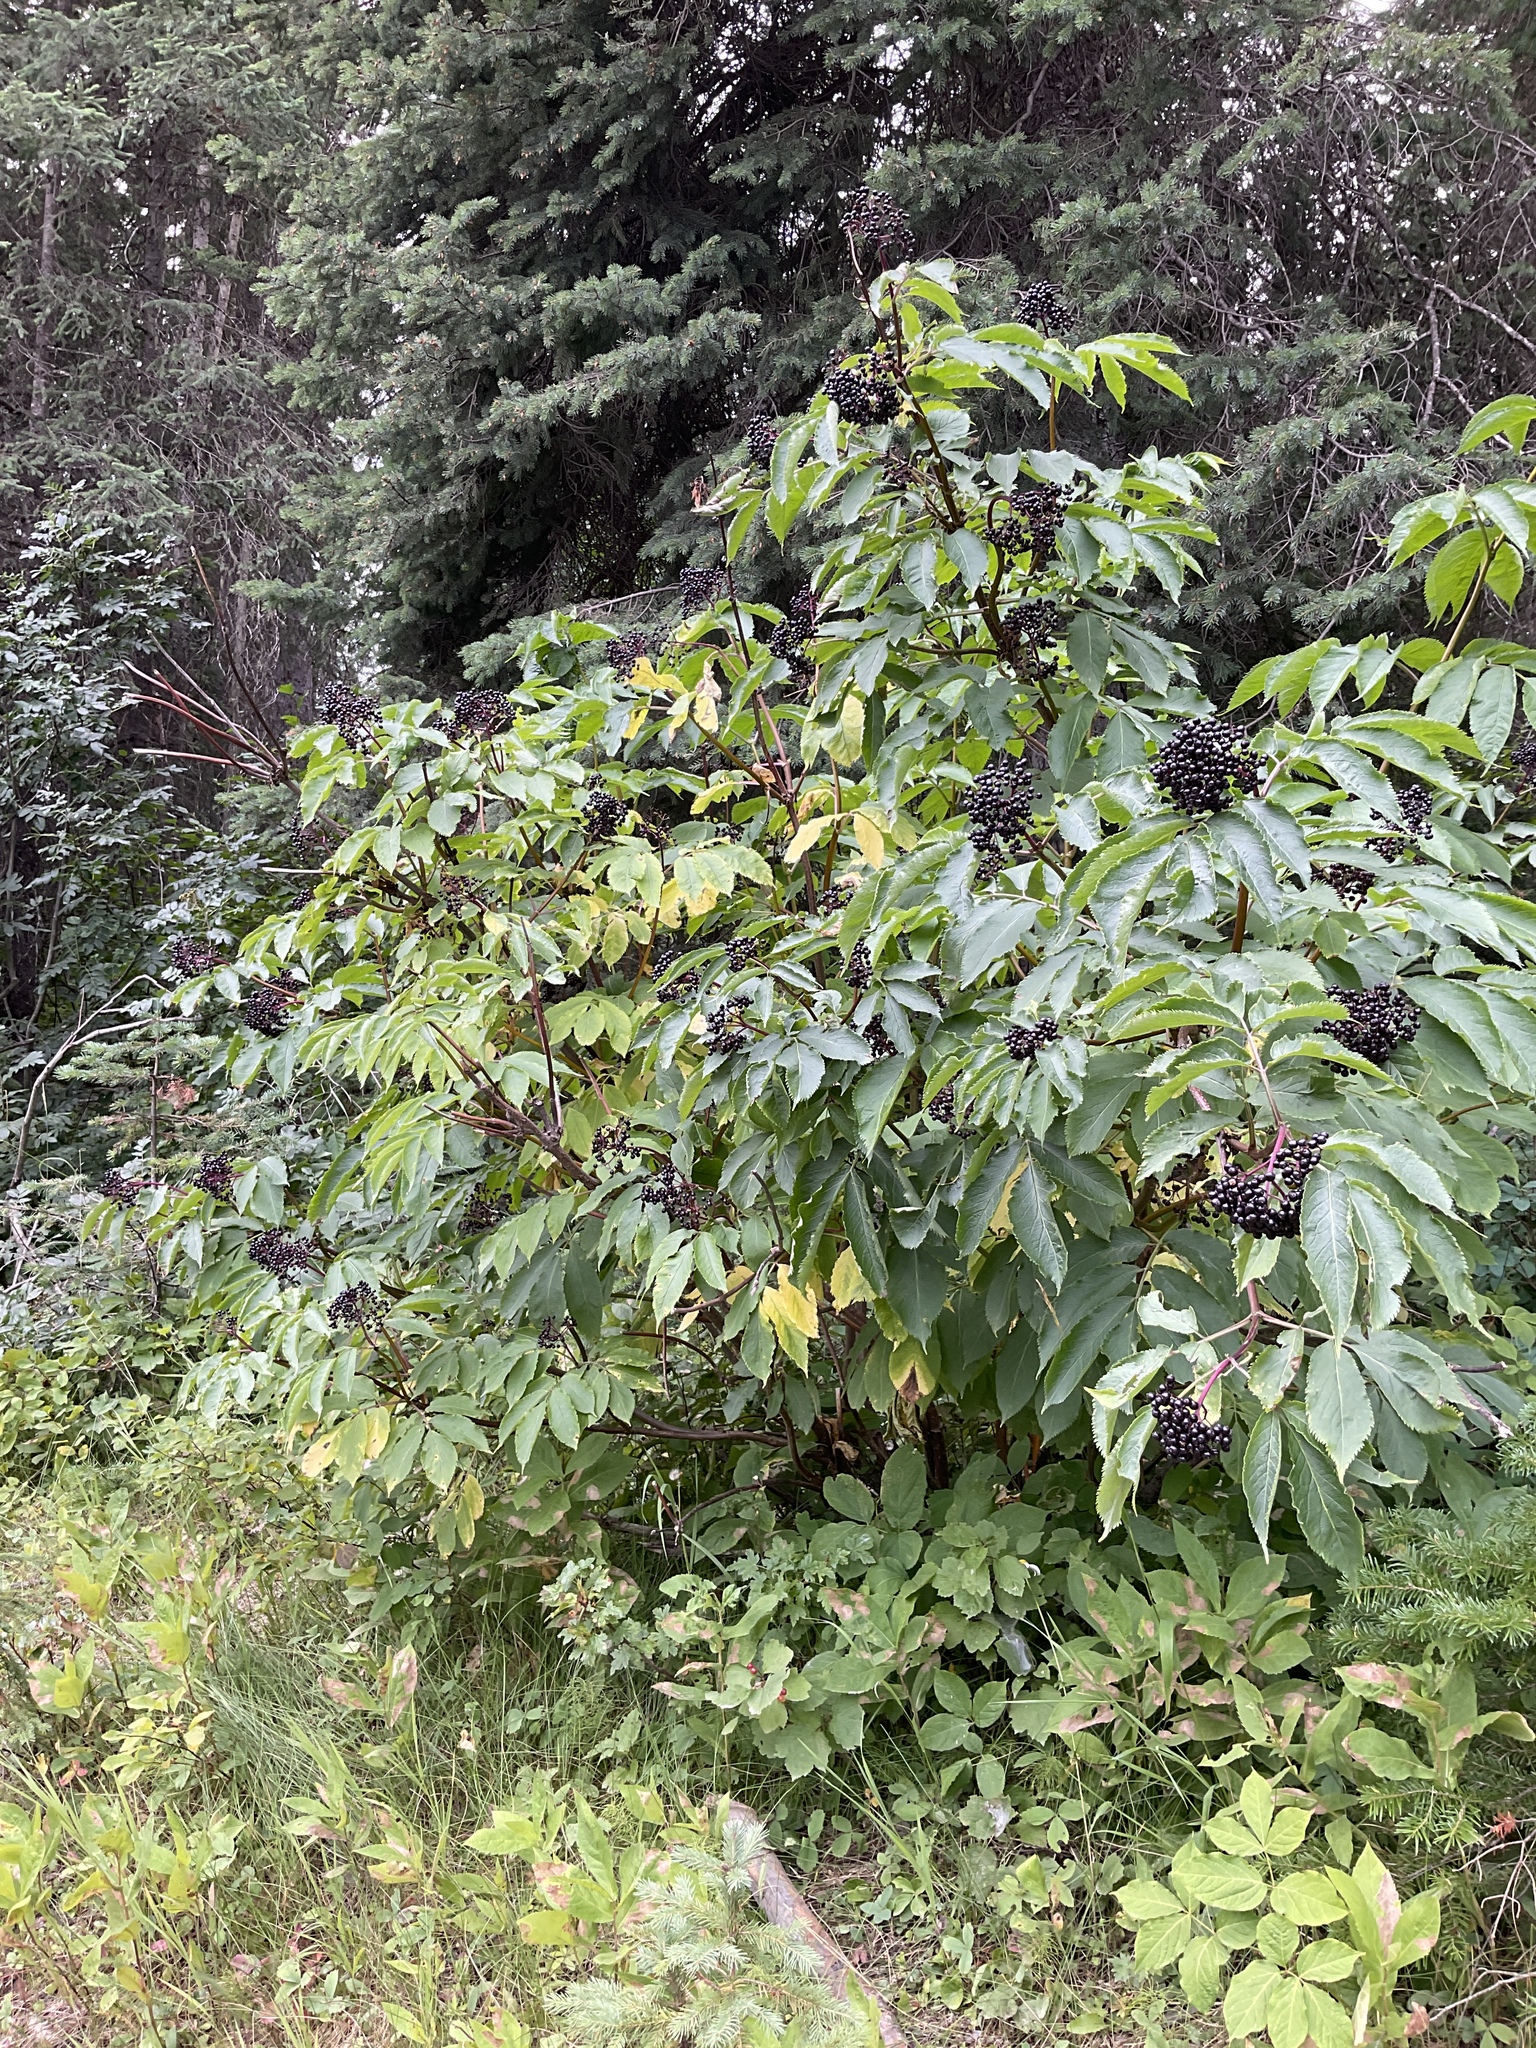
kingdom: Plantae
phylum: Tracheophyta
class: Magnoliopsida
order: Dipsacales
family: Viburnaceae
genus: Sambucus
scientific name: Sambucus racemosa
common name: Red-berried elder
